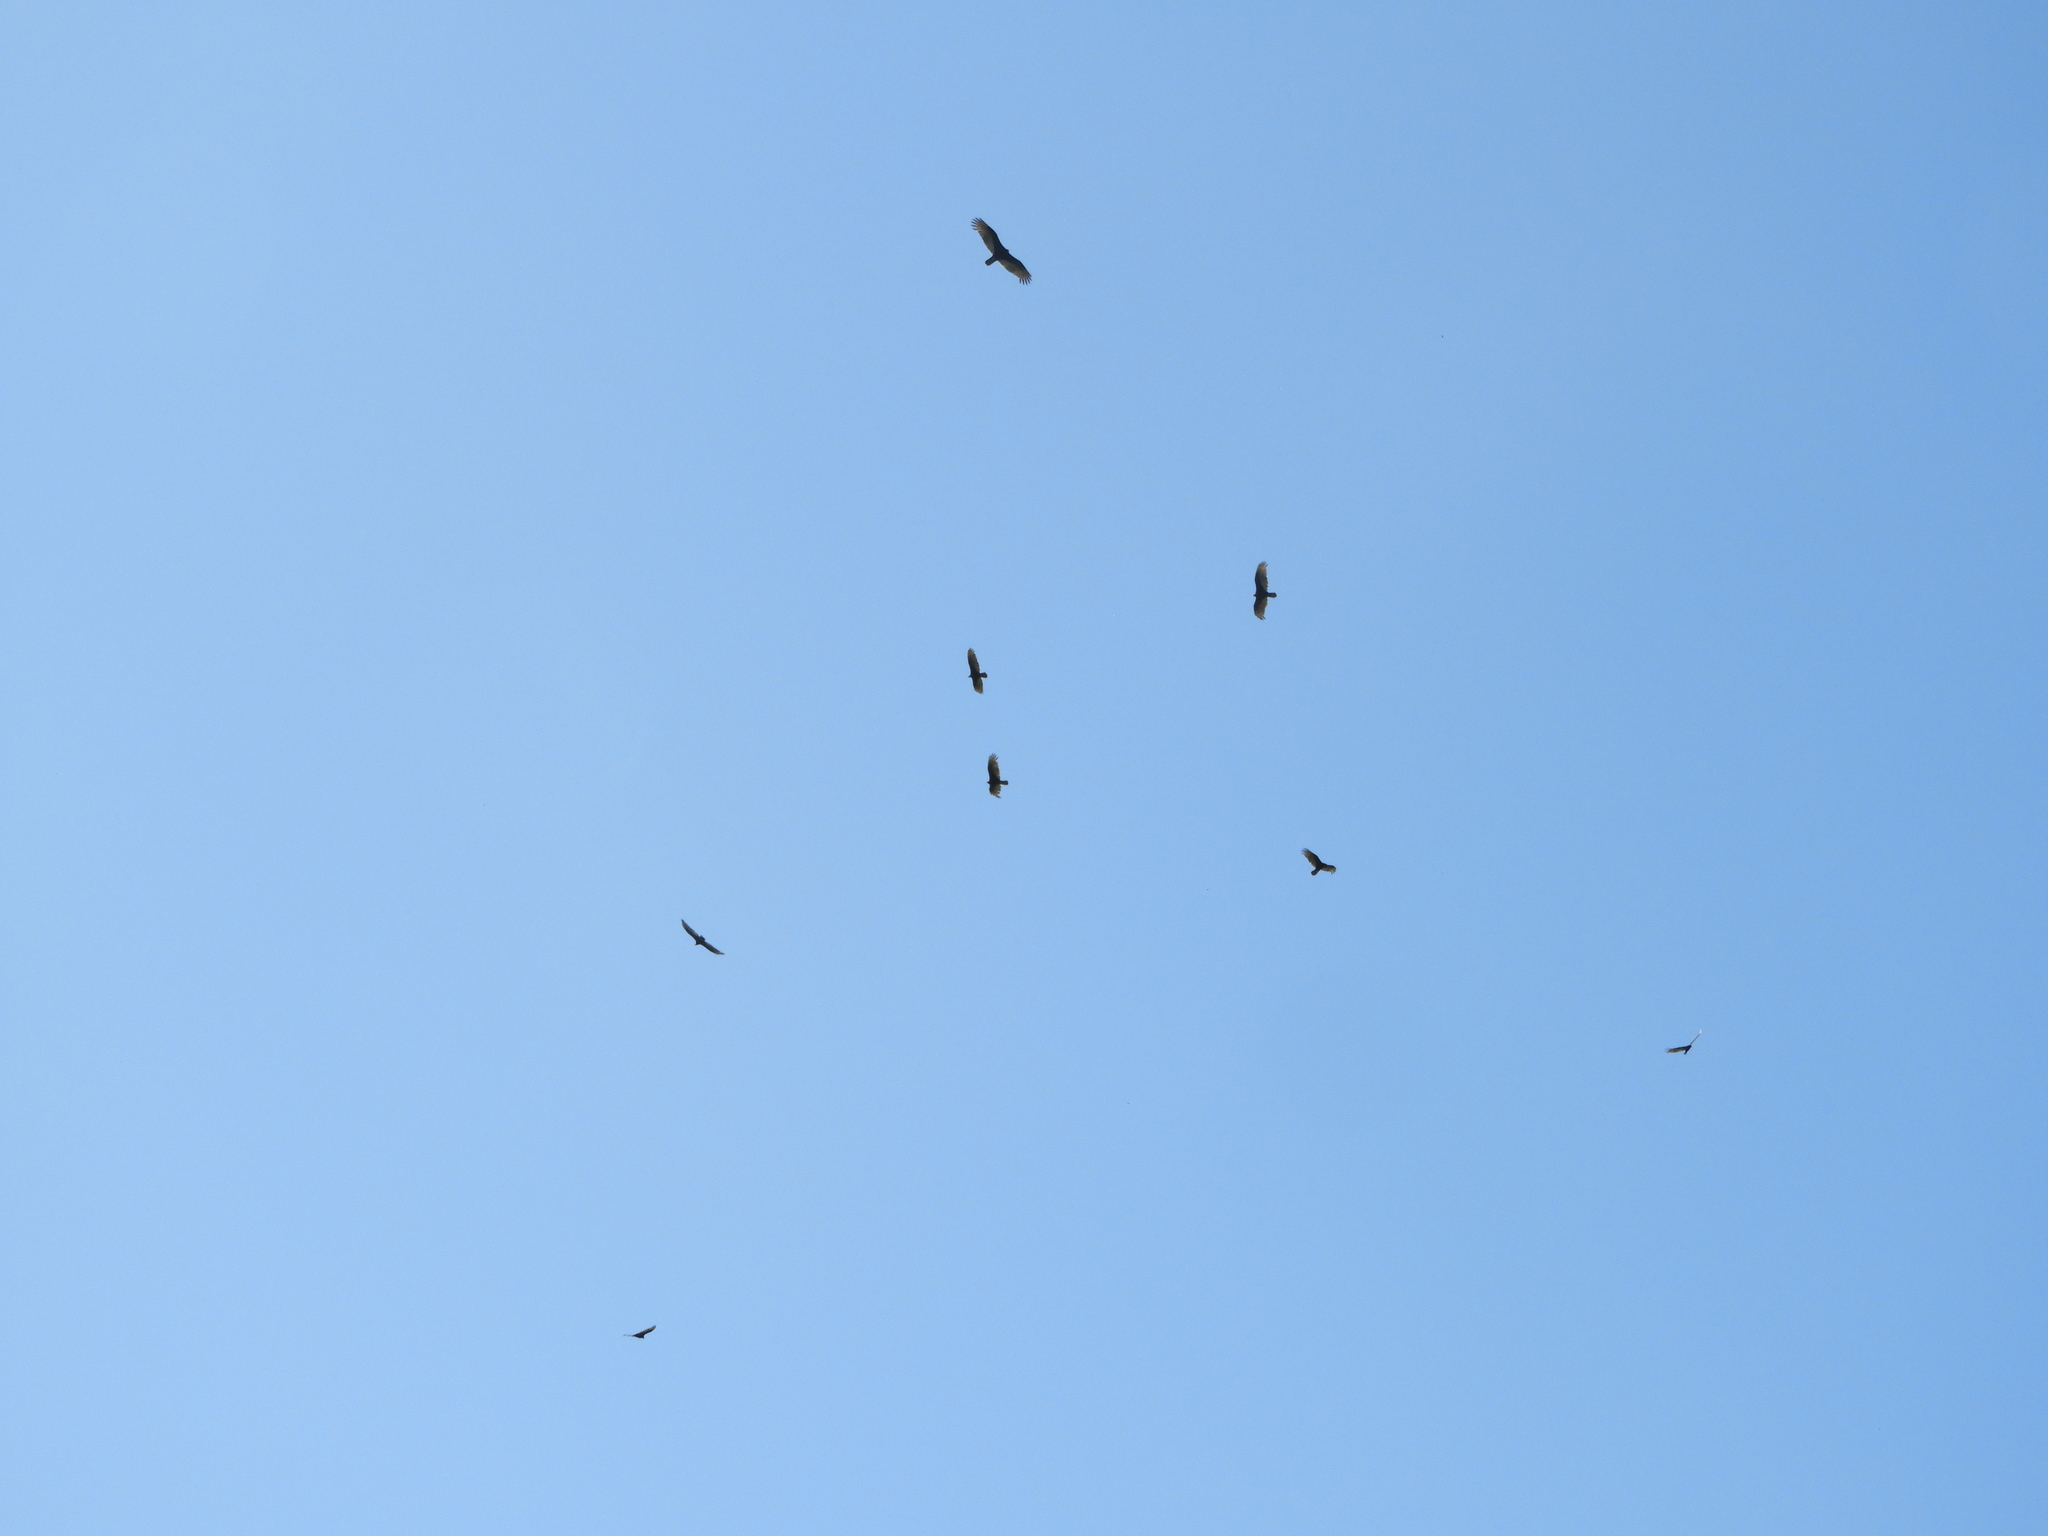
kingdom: Animalia
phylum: Chordata
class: Aves
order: Accipitriformes
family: Cathartidae
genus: Cathartes
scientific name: Cathartes aura
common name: Turkey vulture
